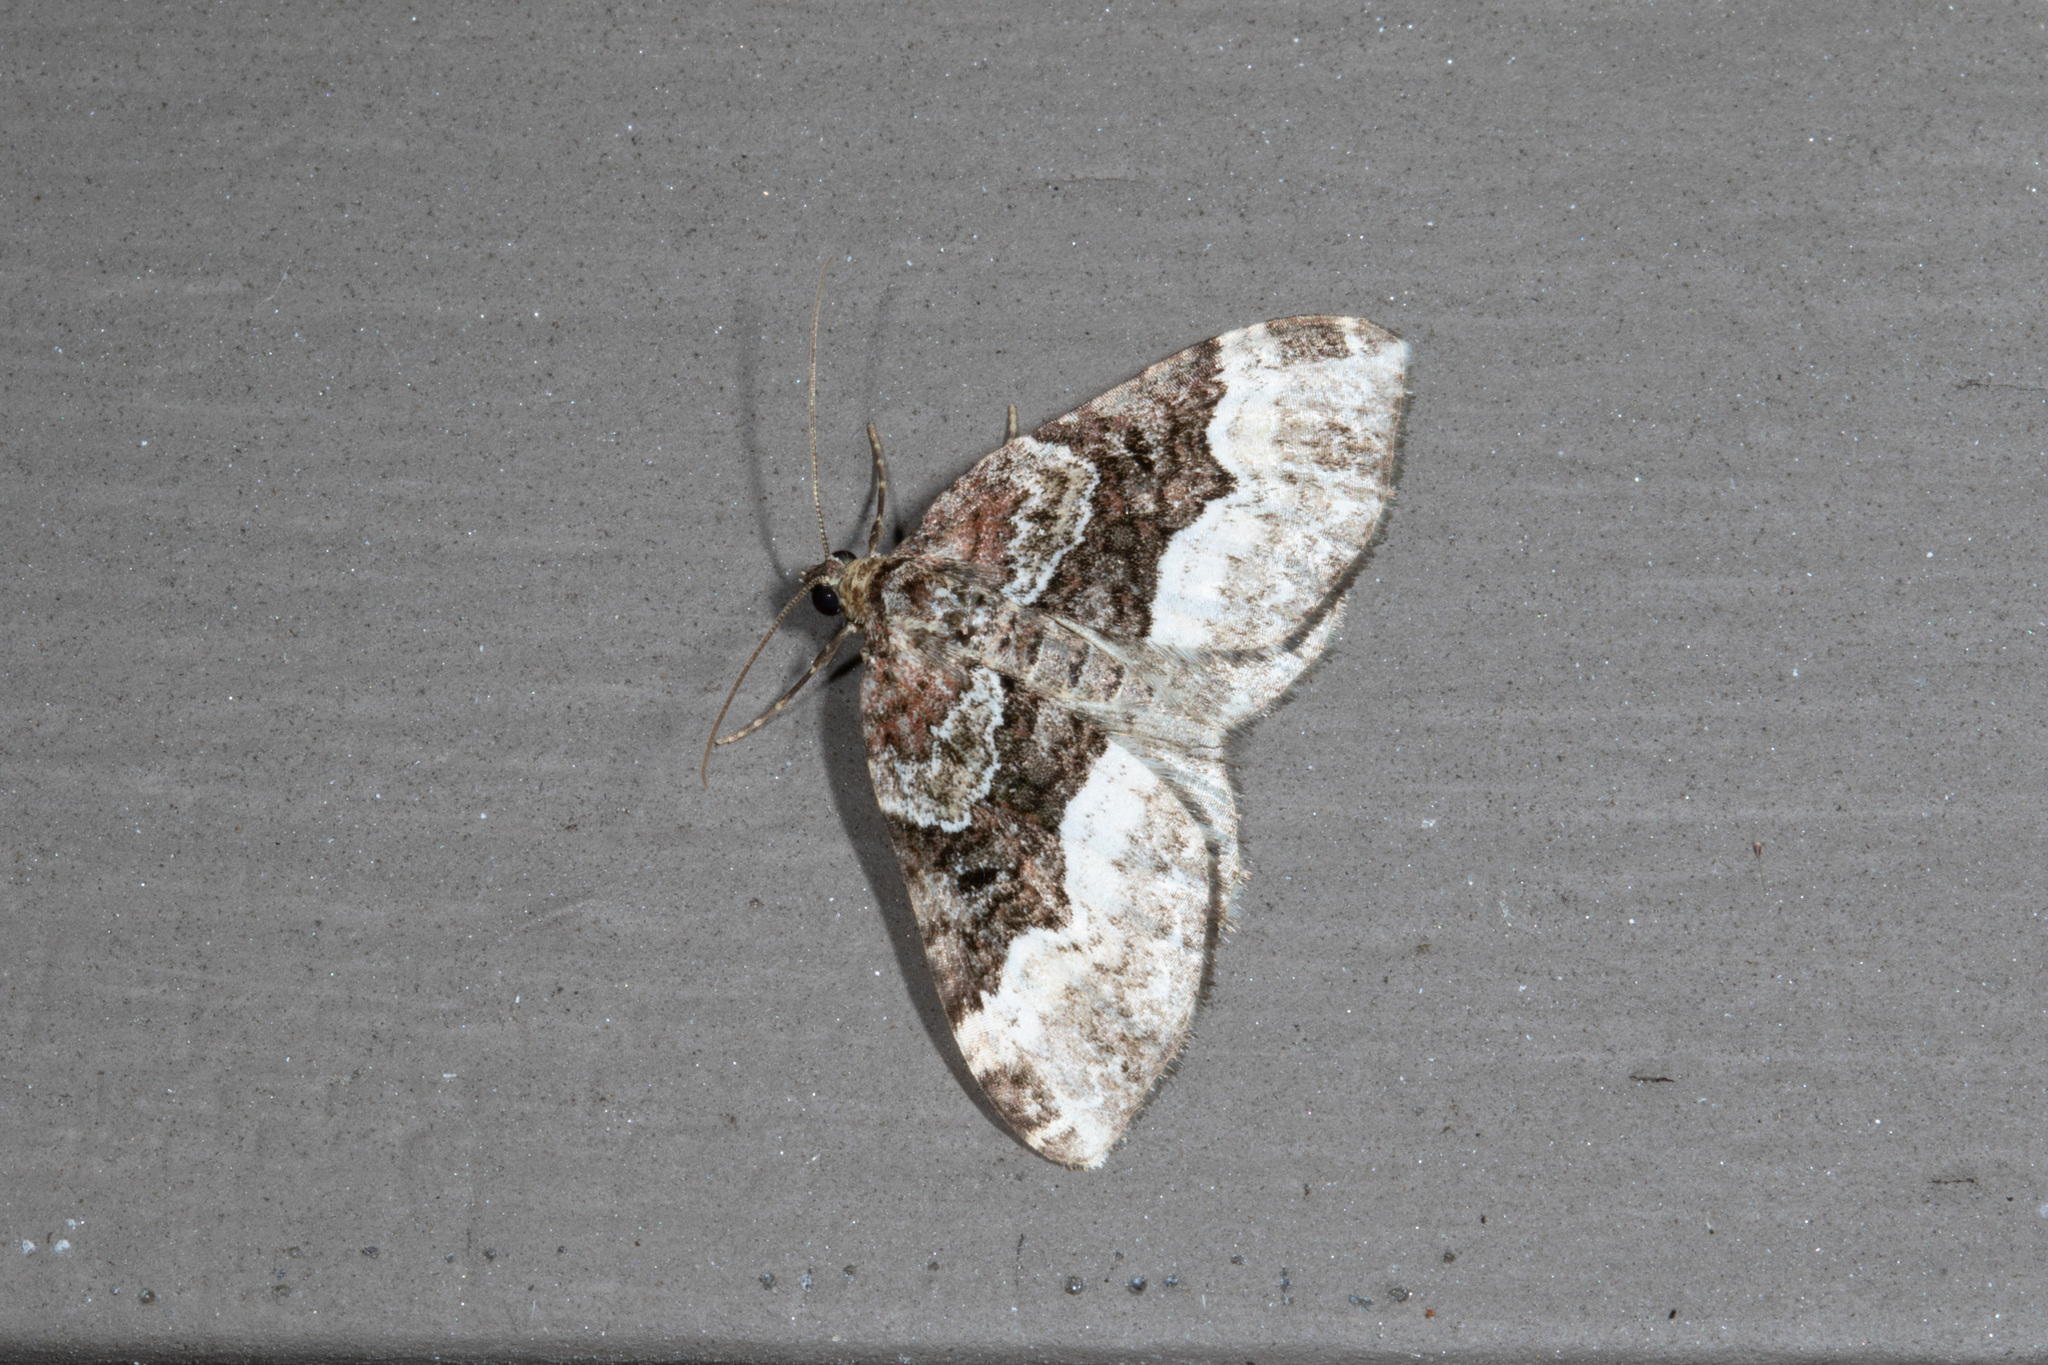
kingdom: Animalia
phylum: Arthropoda
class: Insecta
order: Lepidoptera
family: Geometridae
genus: Euphyia
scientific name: Euphyia intermediata
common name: Sharp-angled carpet
